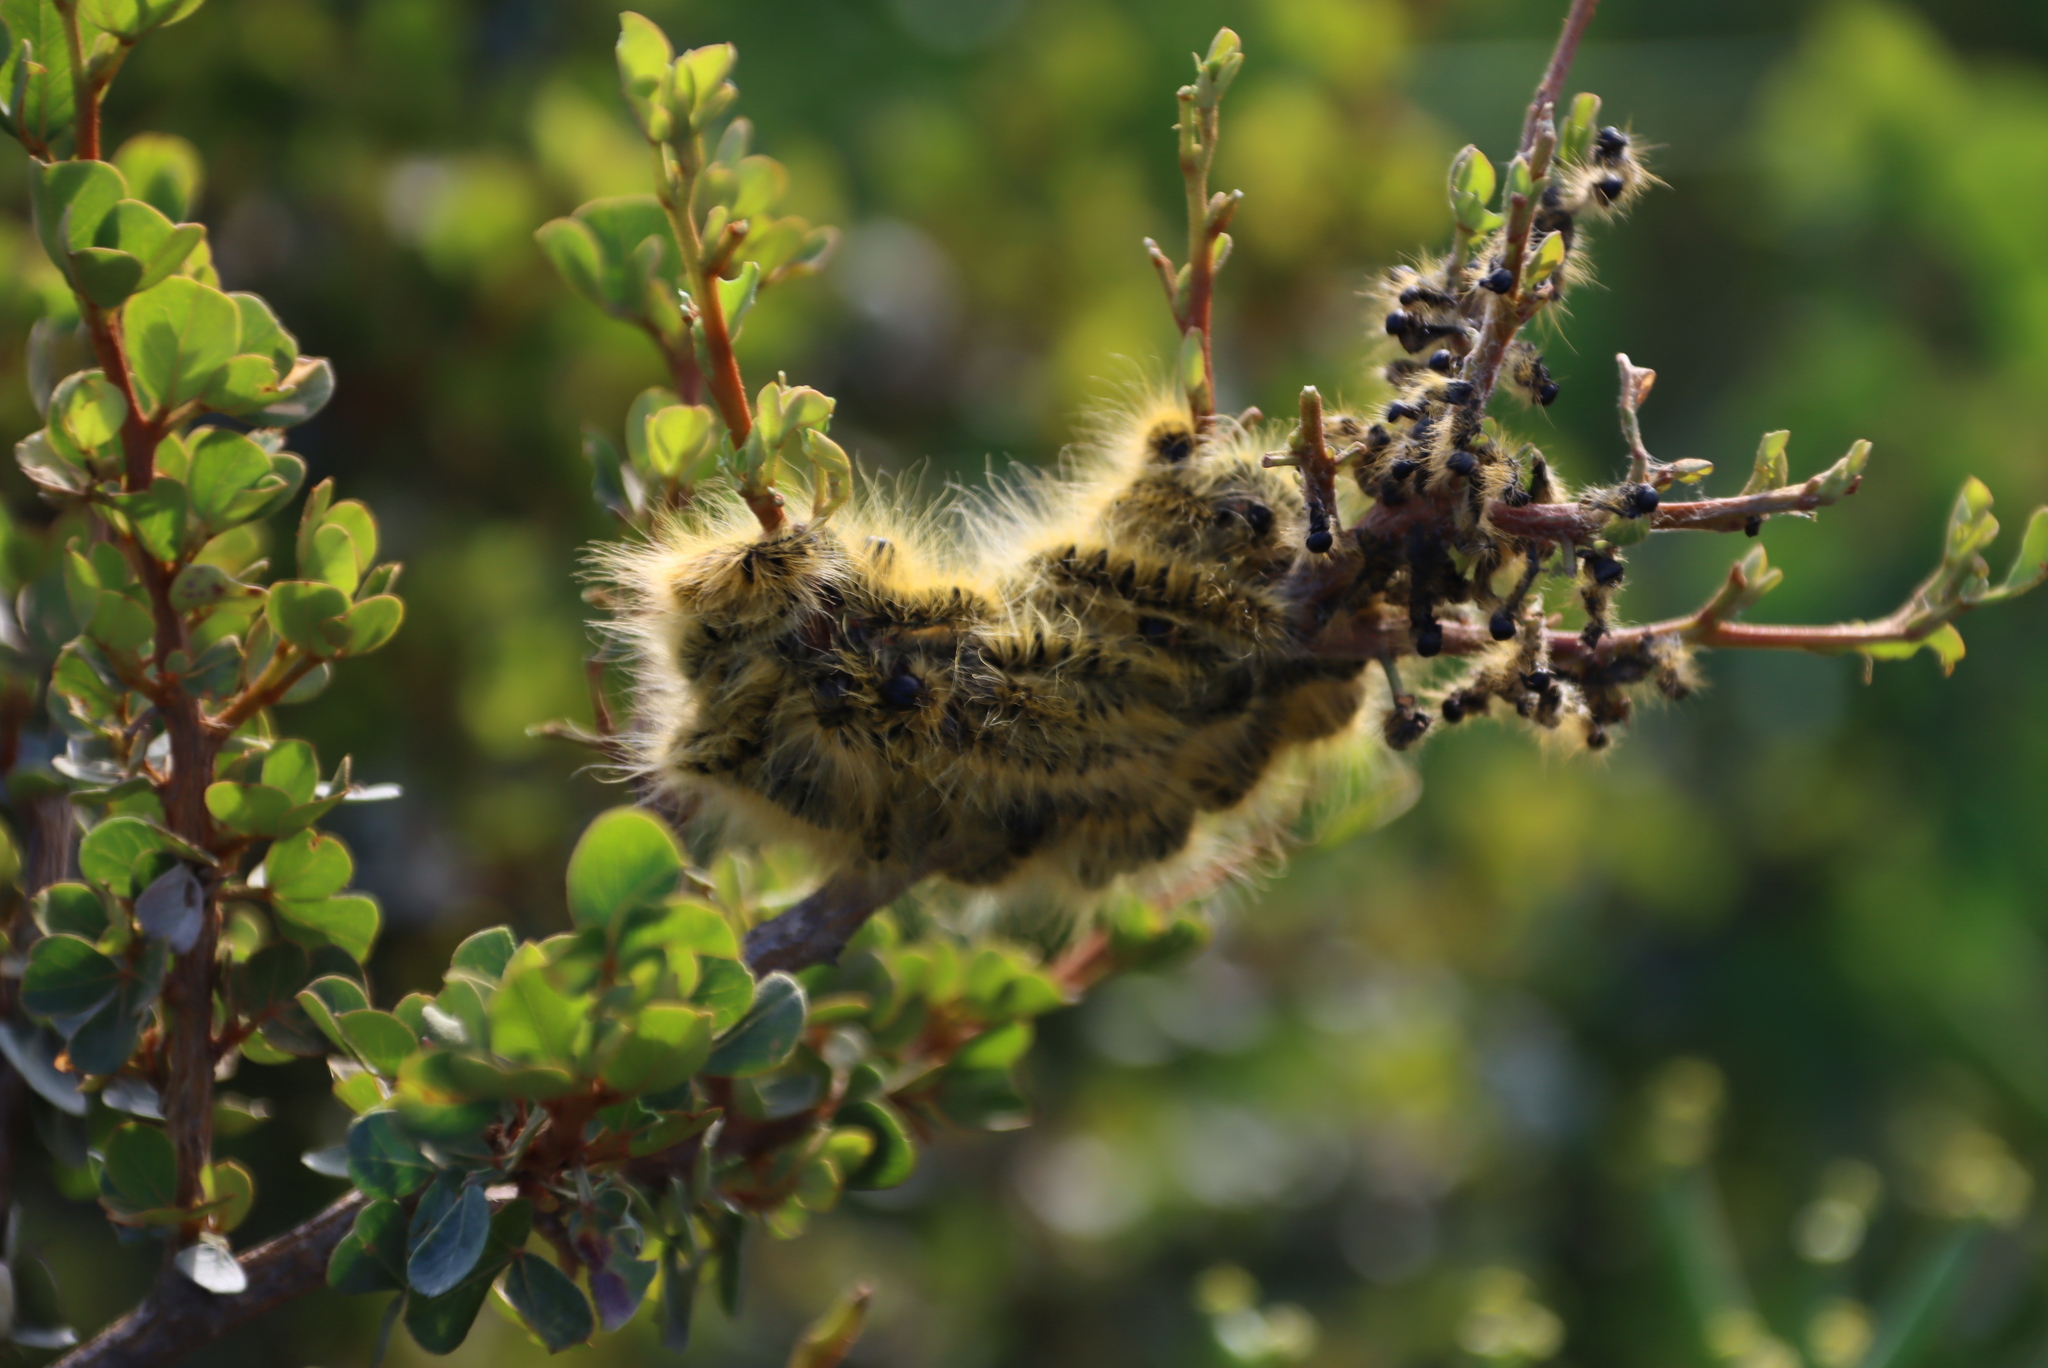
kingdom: Plantae
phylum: Tracheophyta
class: Magnoliopsida
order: Sapindales
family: Anacardiaceae
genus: Searsia
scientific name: Searsia glauca
